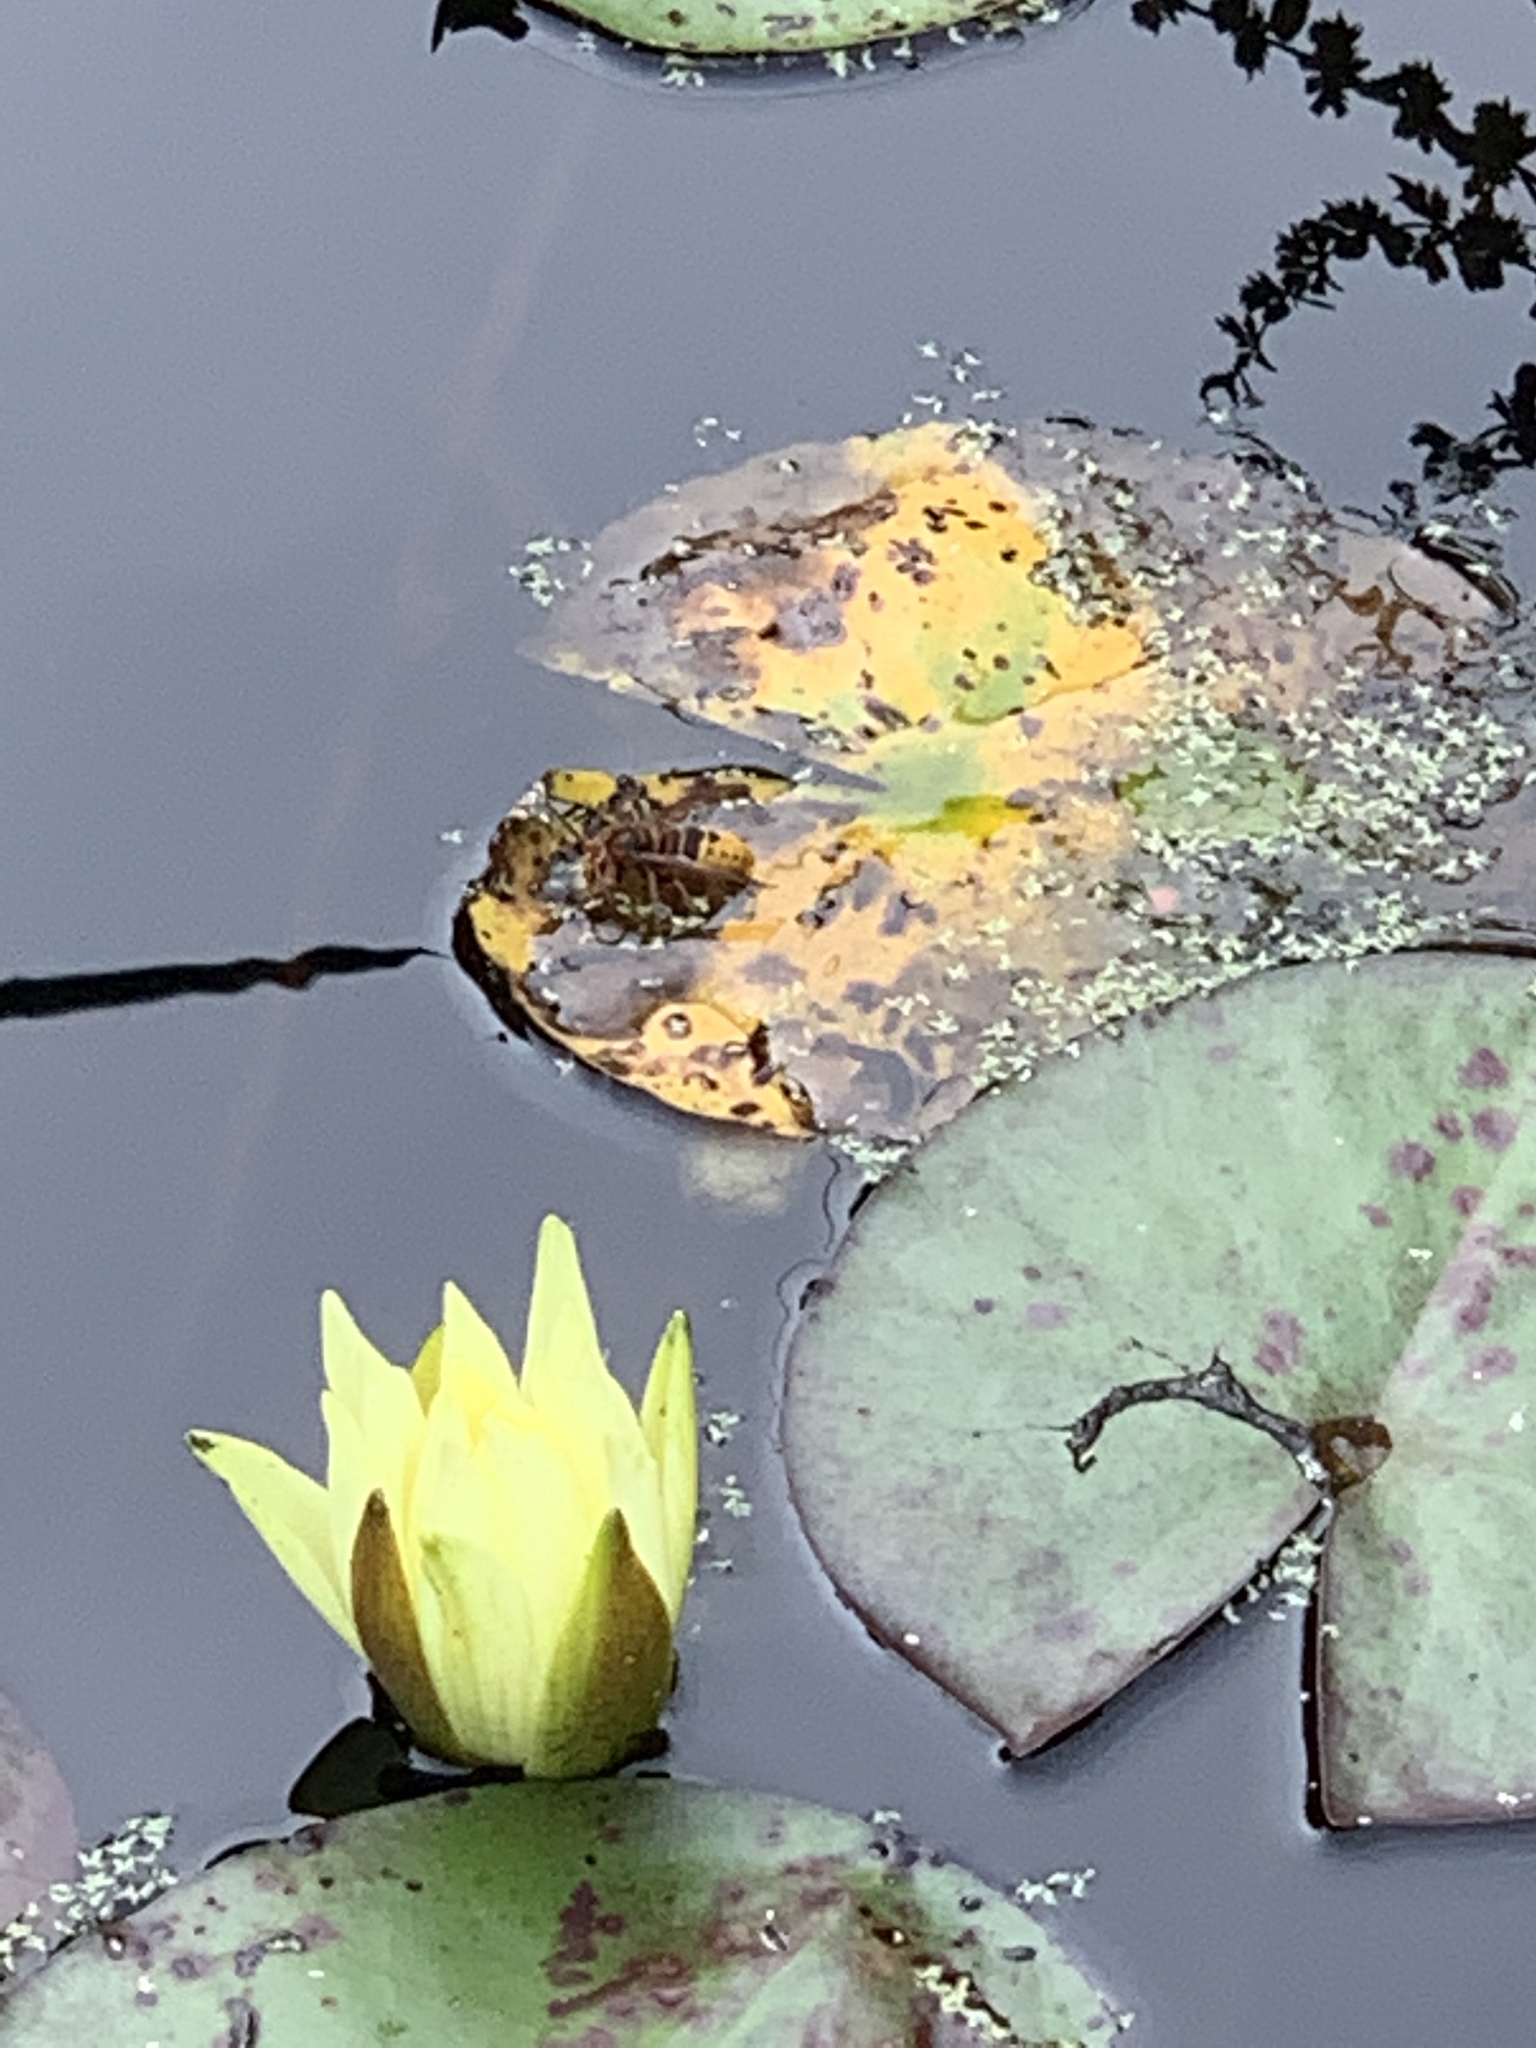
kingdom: Animalia
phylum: Arthropoda
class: Insecta
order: Hymenoptera
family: Vespidae
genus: Vespa
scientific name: Vespa crabro
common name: Hornet
